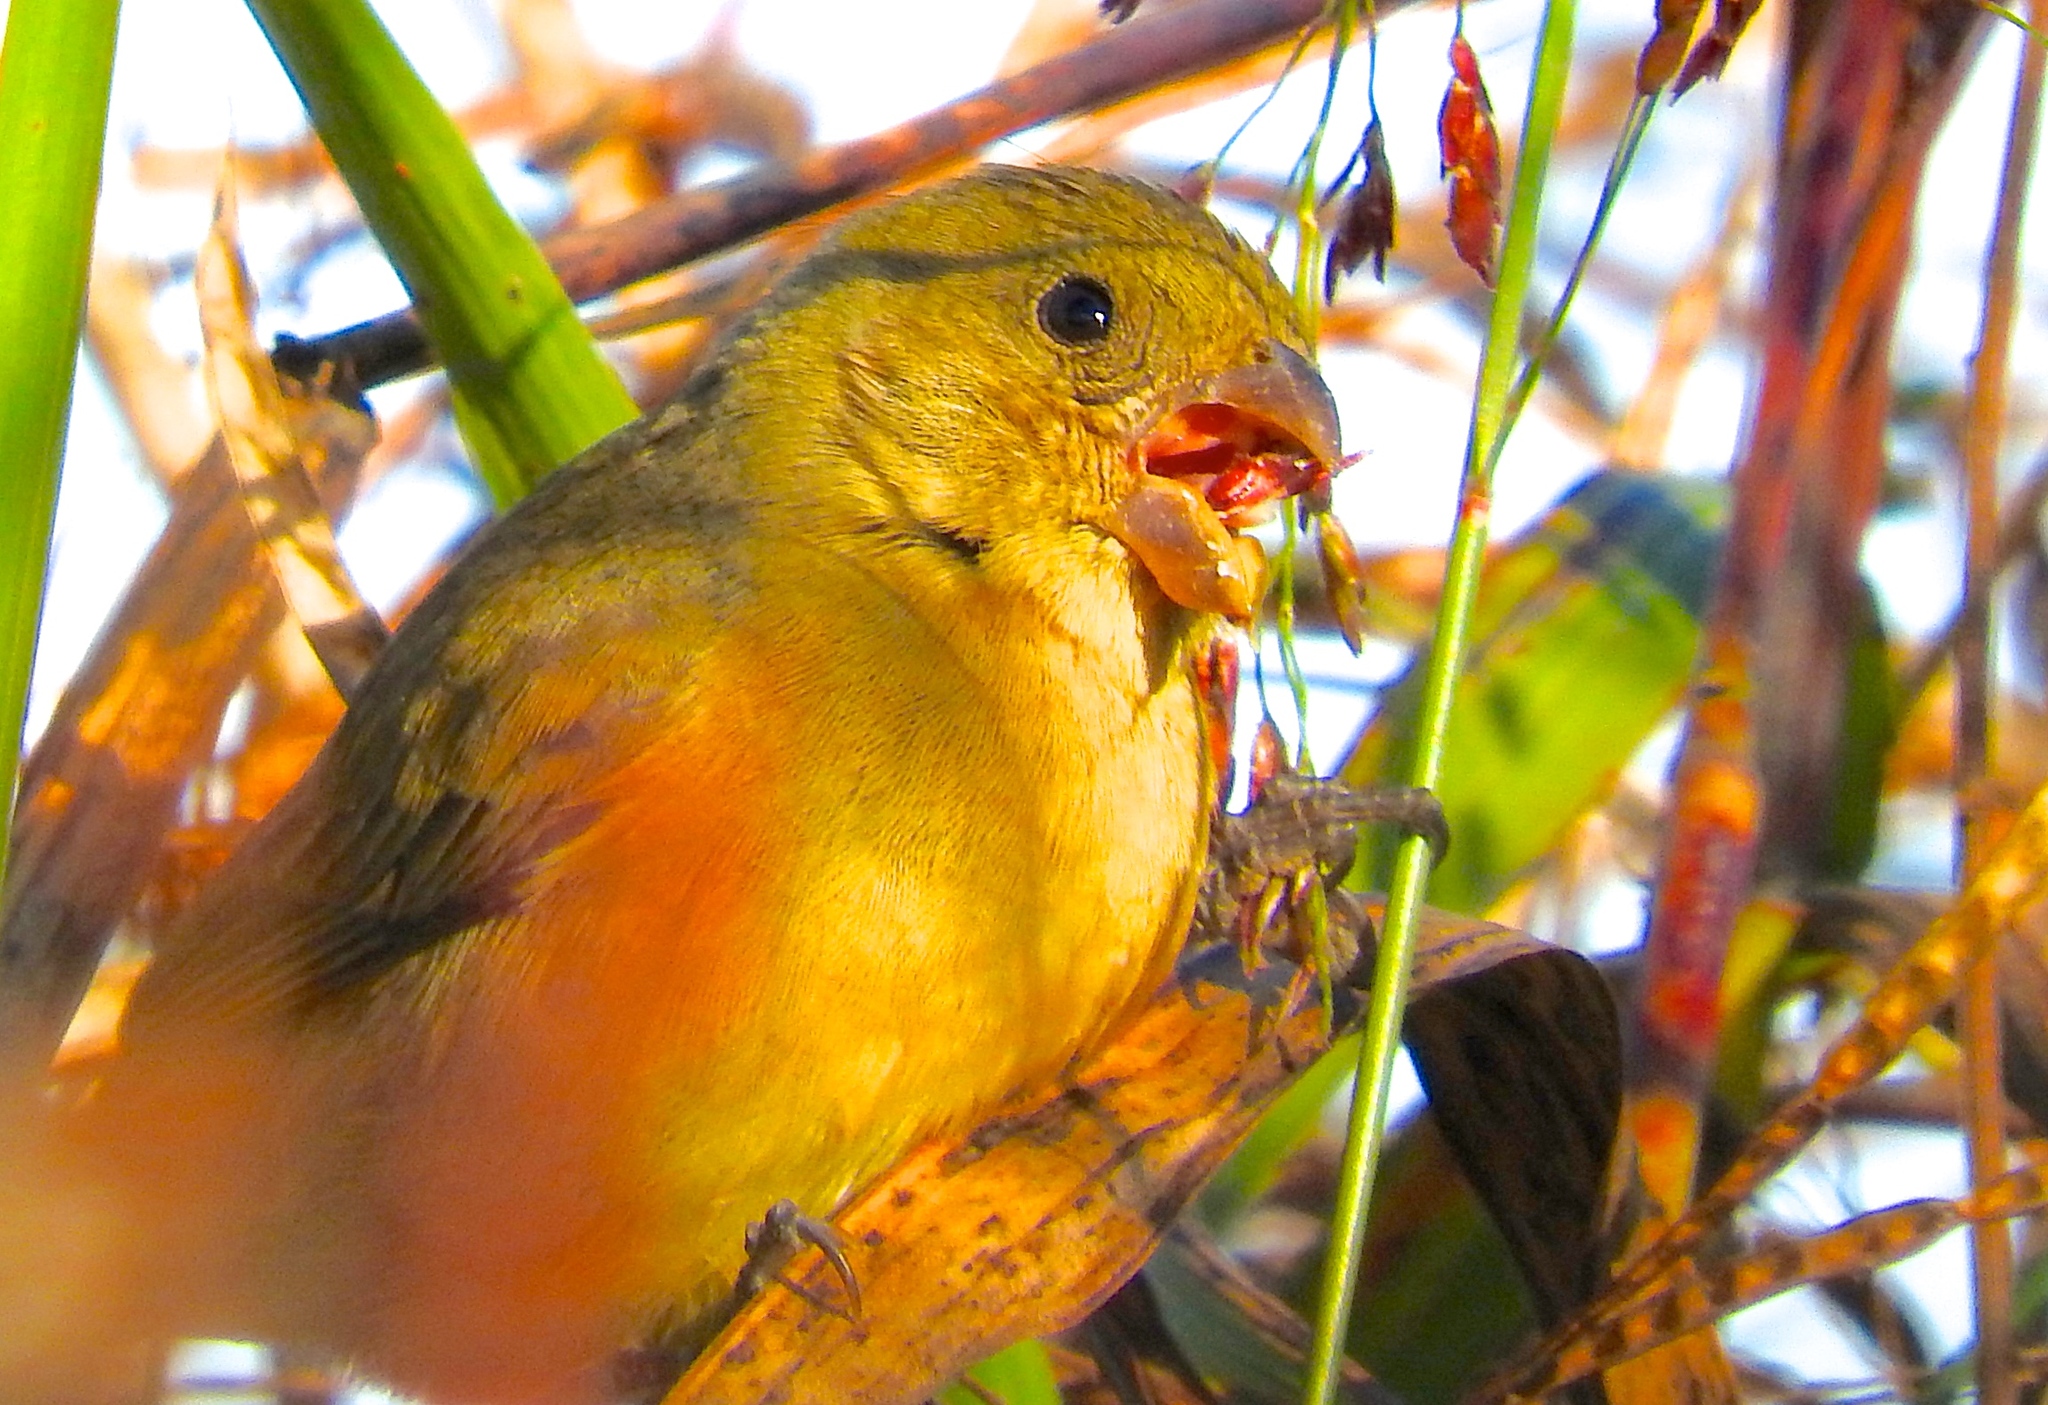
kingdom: Animalia
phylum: Chordata
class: Aves
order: Passeriformes
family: Thraupidae
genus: Sporophila
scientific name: Sporophila torqueola
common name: White-collared seedeater
